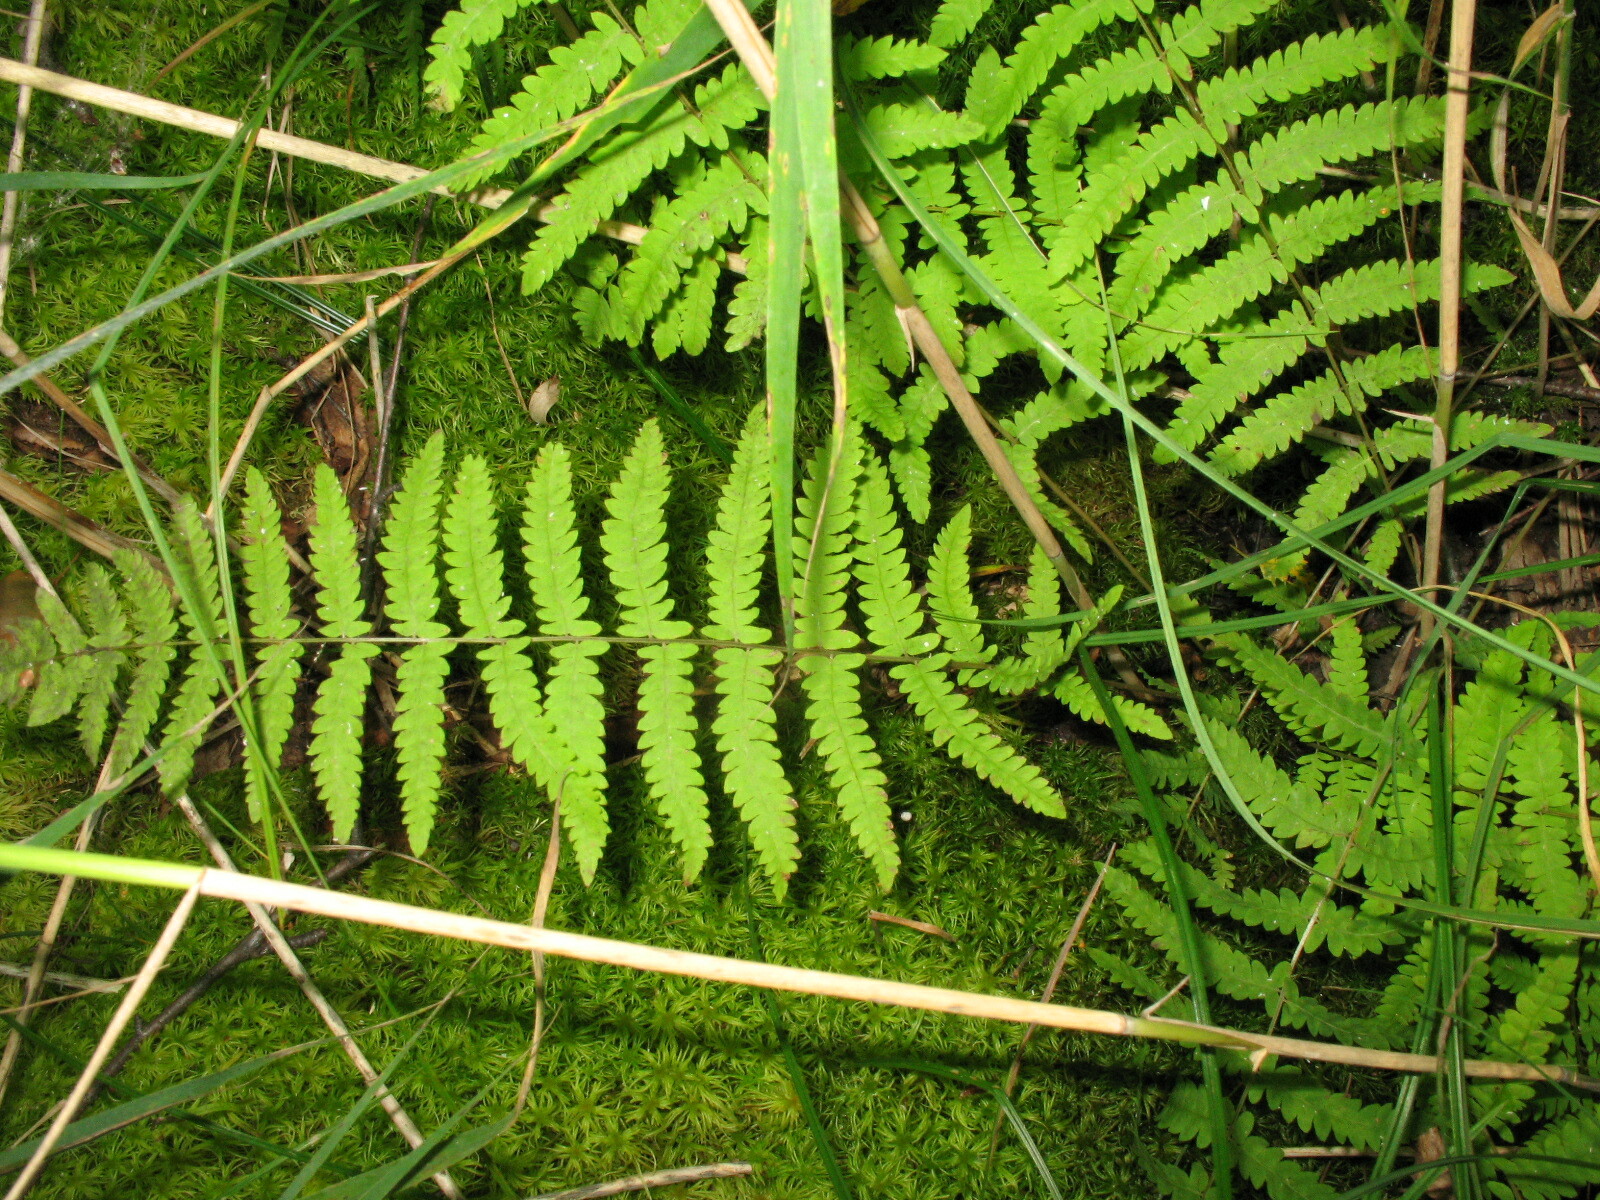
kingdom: Plantae
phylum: Tracheophyta
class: Polypodiopsida
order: Polypodiales
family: Thelypteridaceae
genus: Thelypteris
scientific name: Thelypteris palustris
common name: Marsh fern
